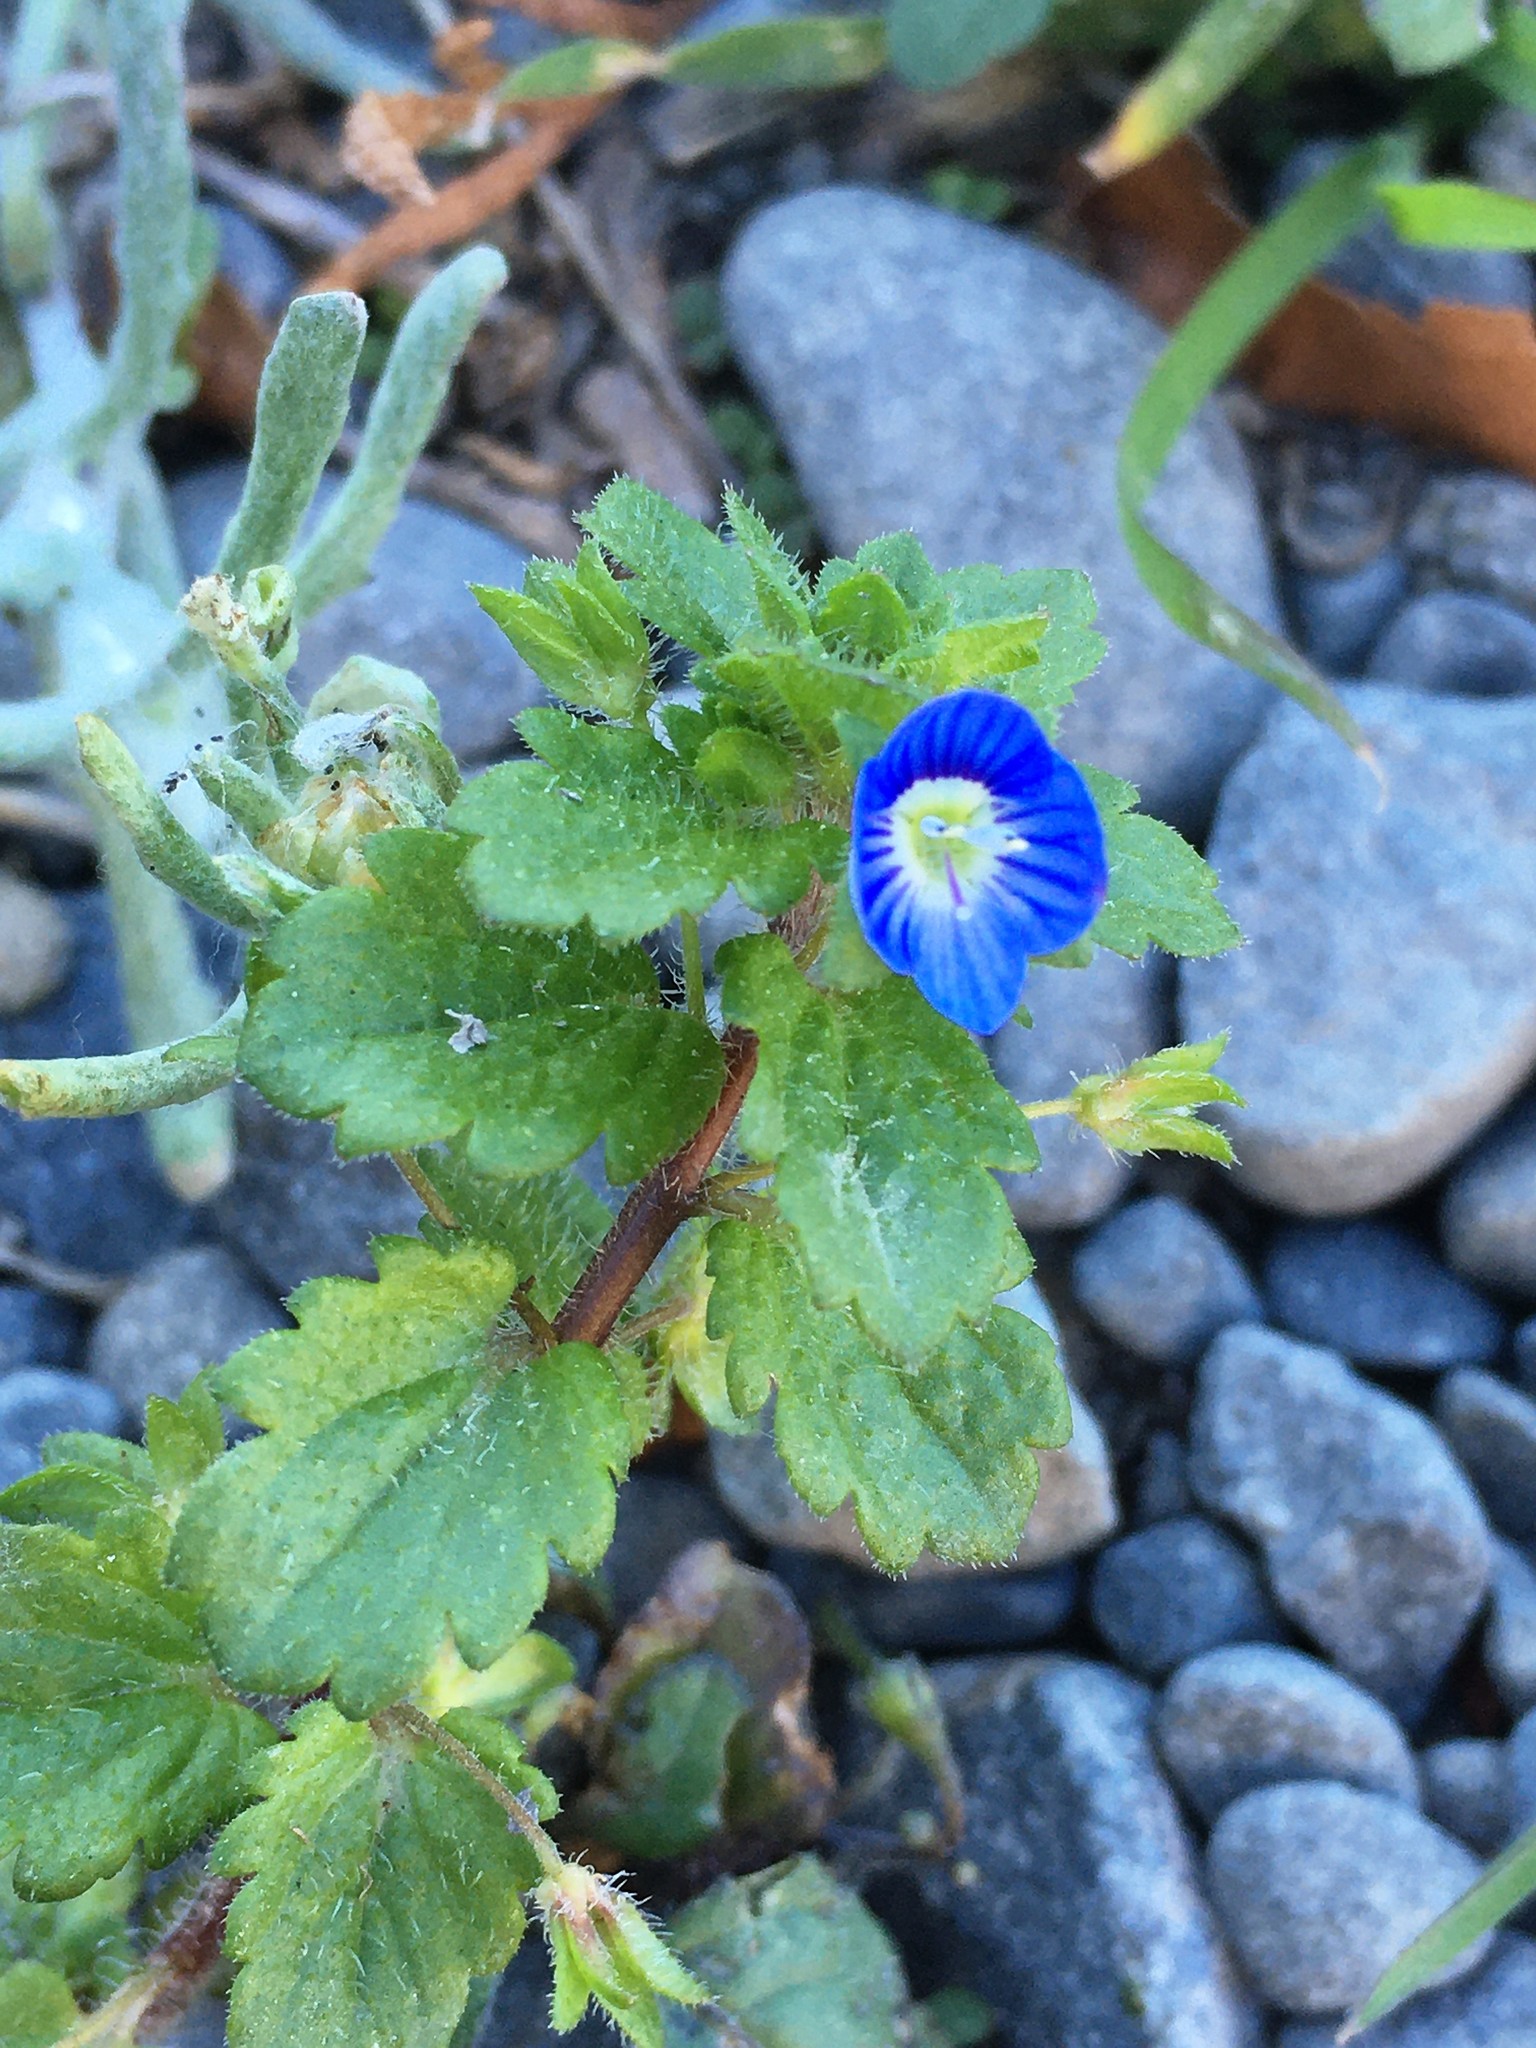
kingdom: Plantae
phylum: Tracheophyta
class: Magnoliopsida
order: Lamiales
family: Plantaginaceae
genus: Veronica
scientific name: Veronica persica
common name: Common field-speedwell
